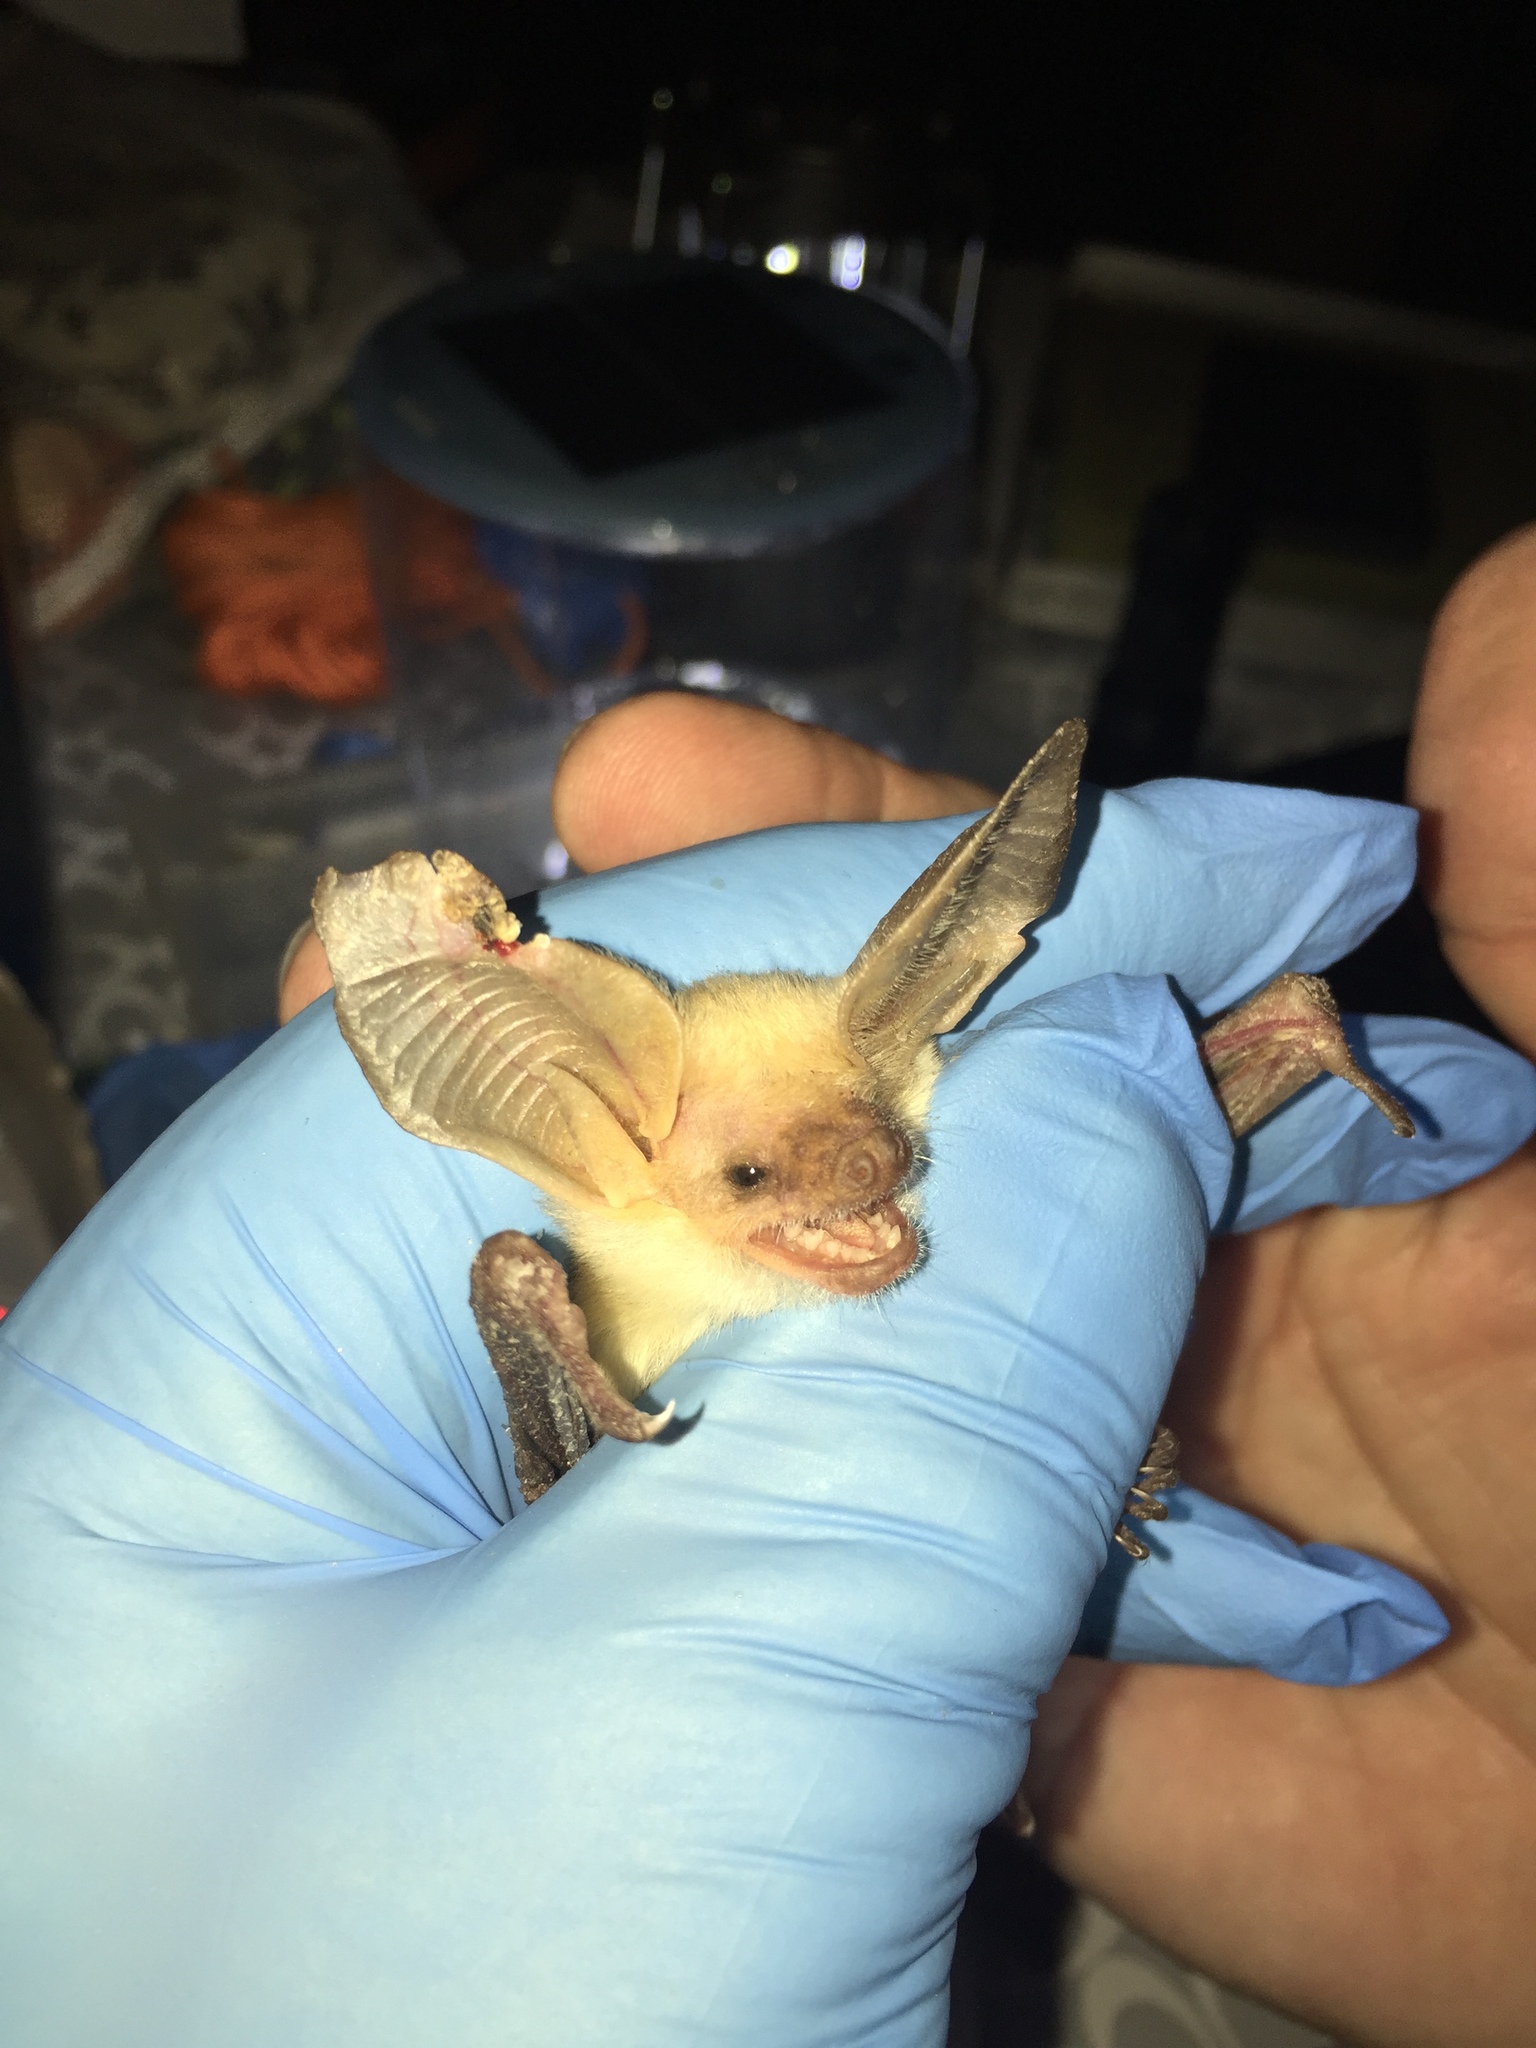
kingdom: Animalia
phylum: Chordata
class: Mammalia
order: Chiroptera
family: Vespertilionidae
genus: Antrozous
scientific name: Antrozous pallidus
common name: Pallid bat
